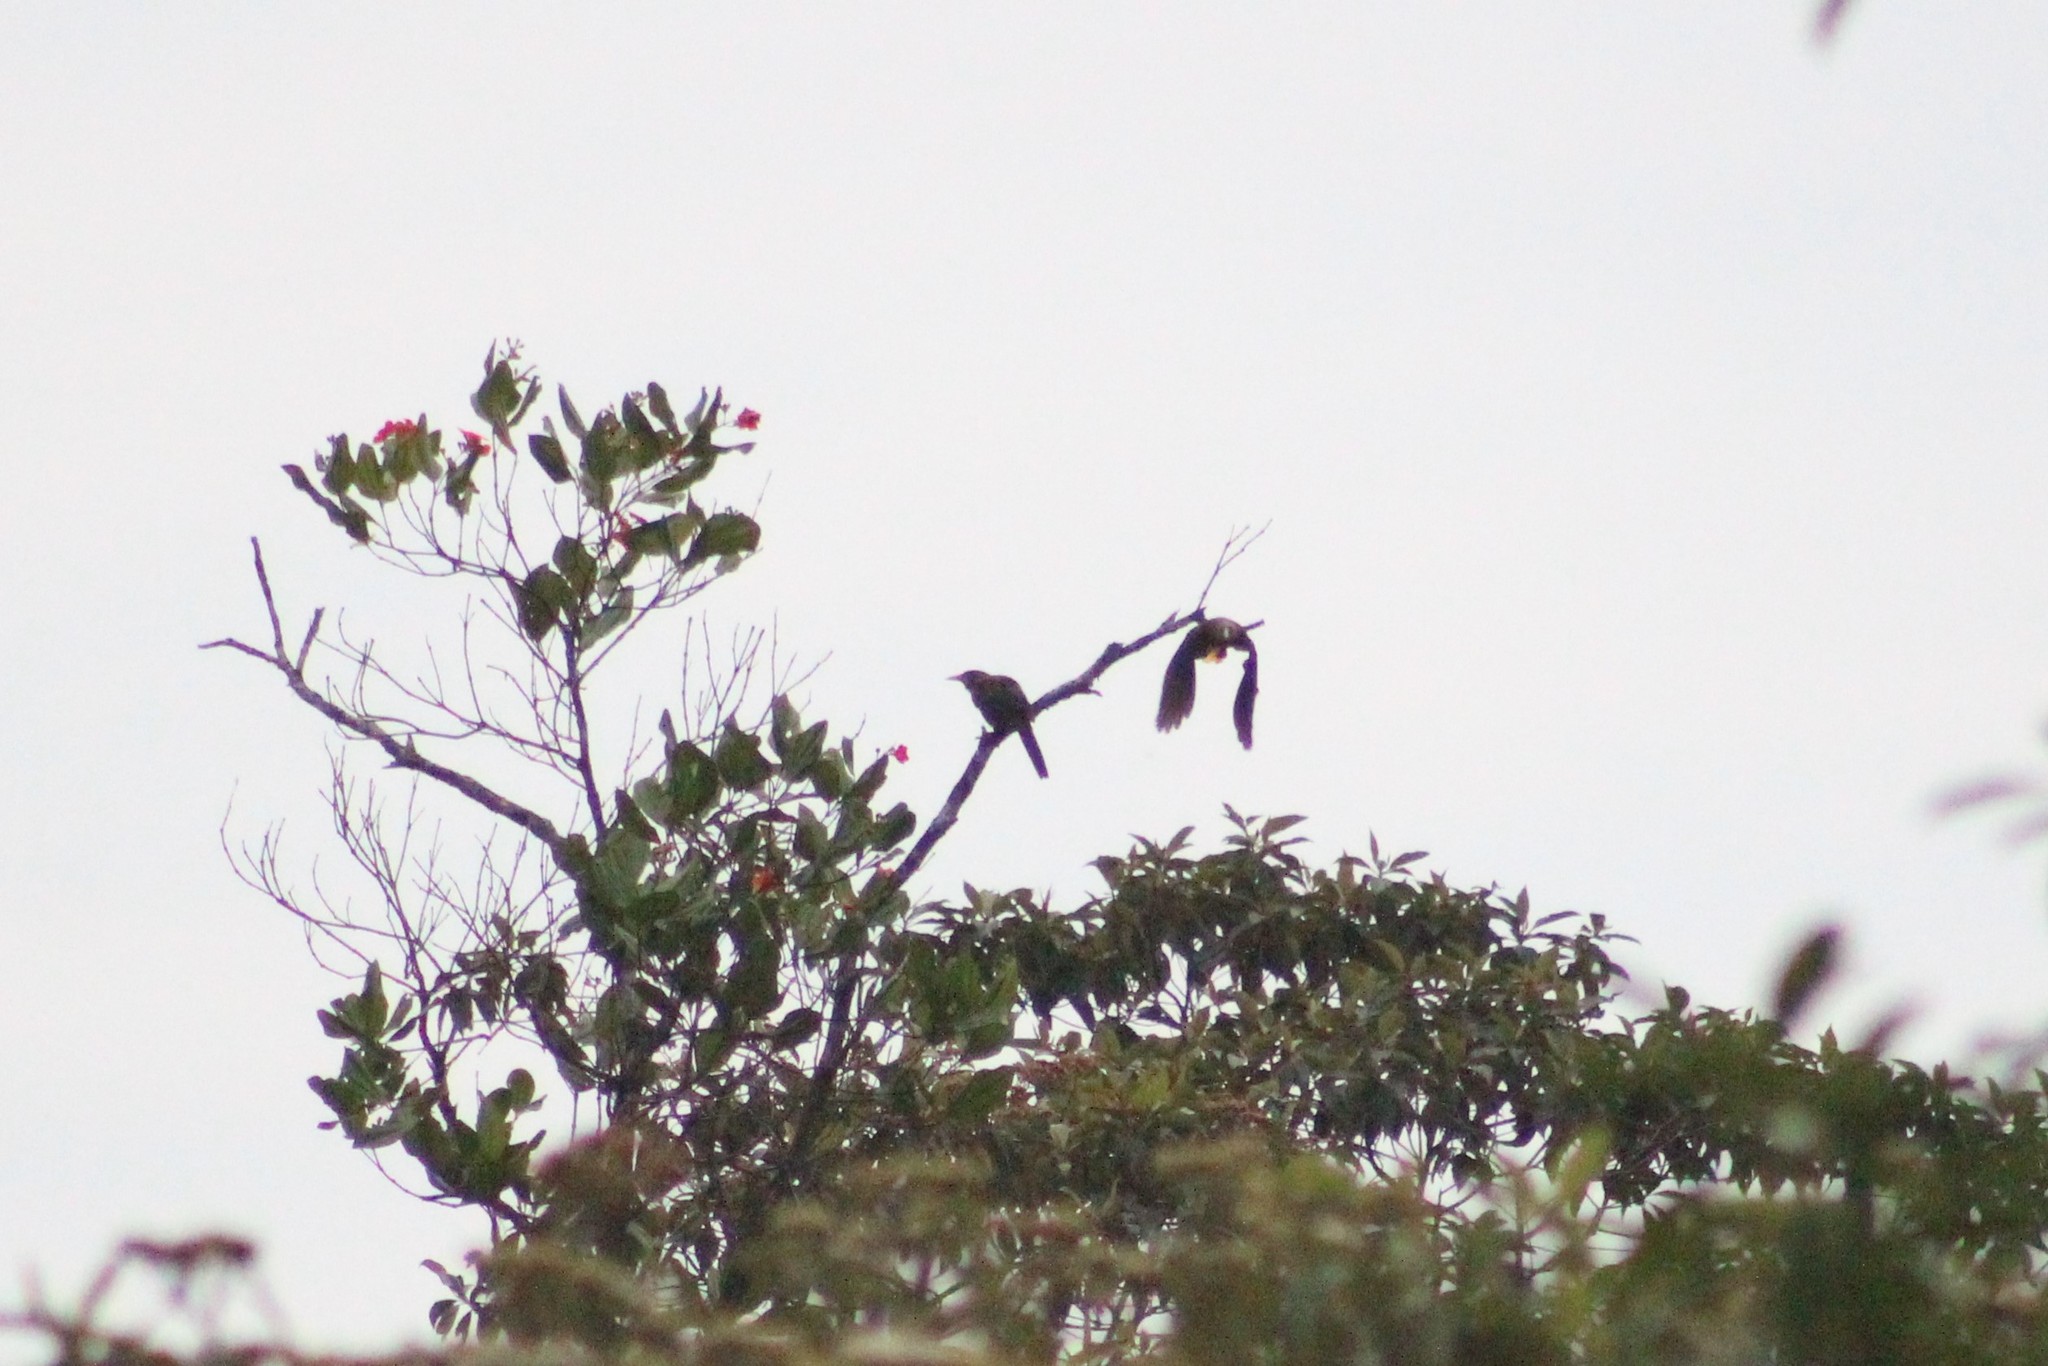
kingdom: Animalia
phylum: Chordata
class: Aves
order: Passeriformes
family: Icteridae
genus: Psarocolius
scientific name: Psarocolius angustifrons
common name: Russet-backed oropendola
